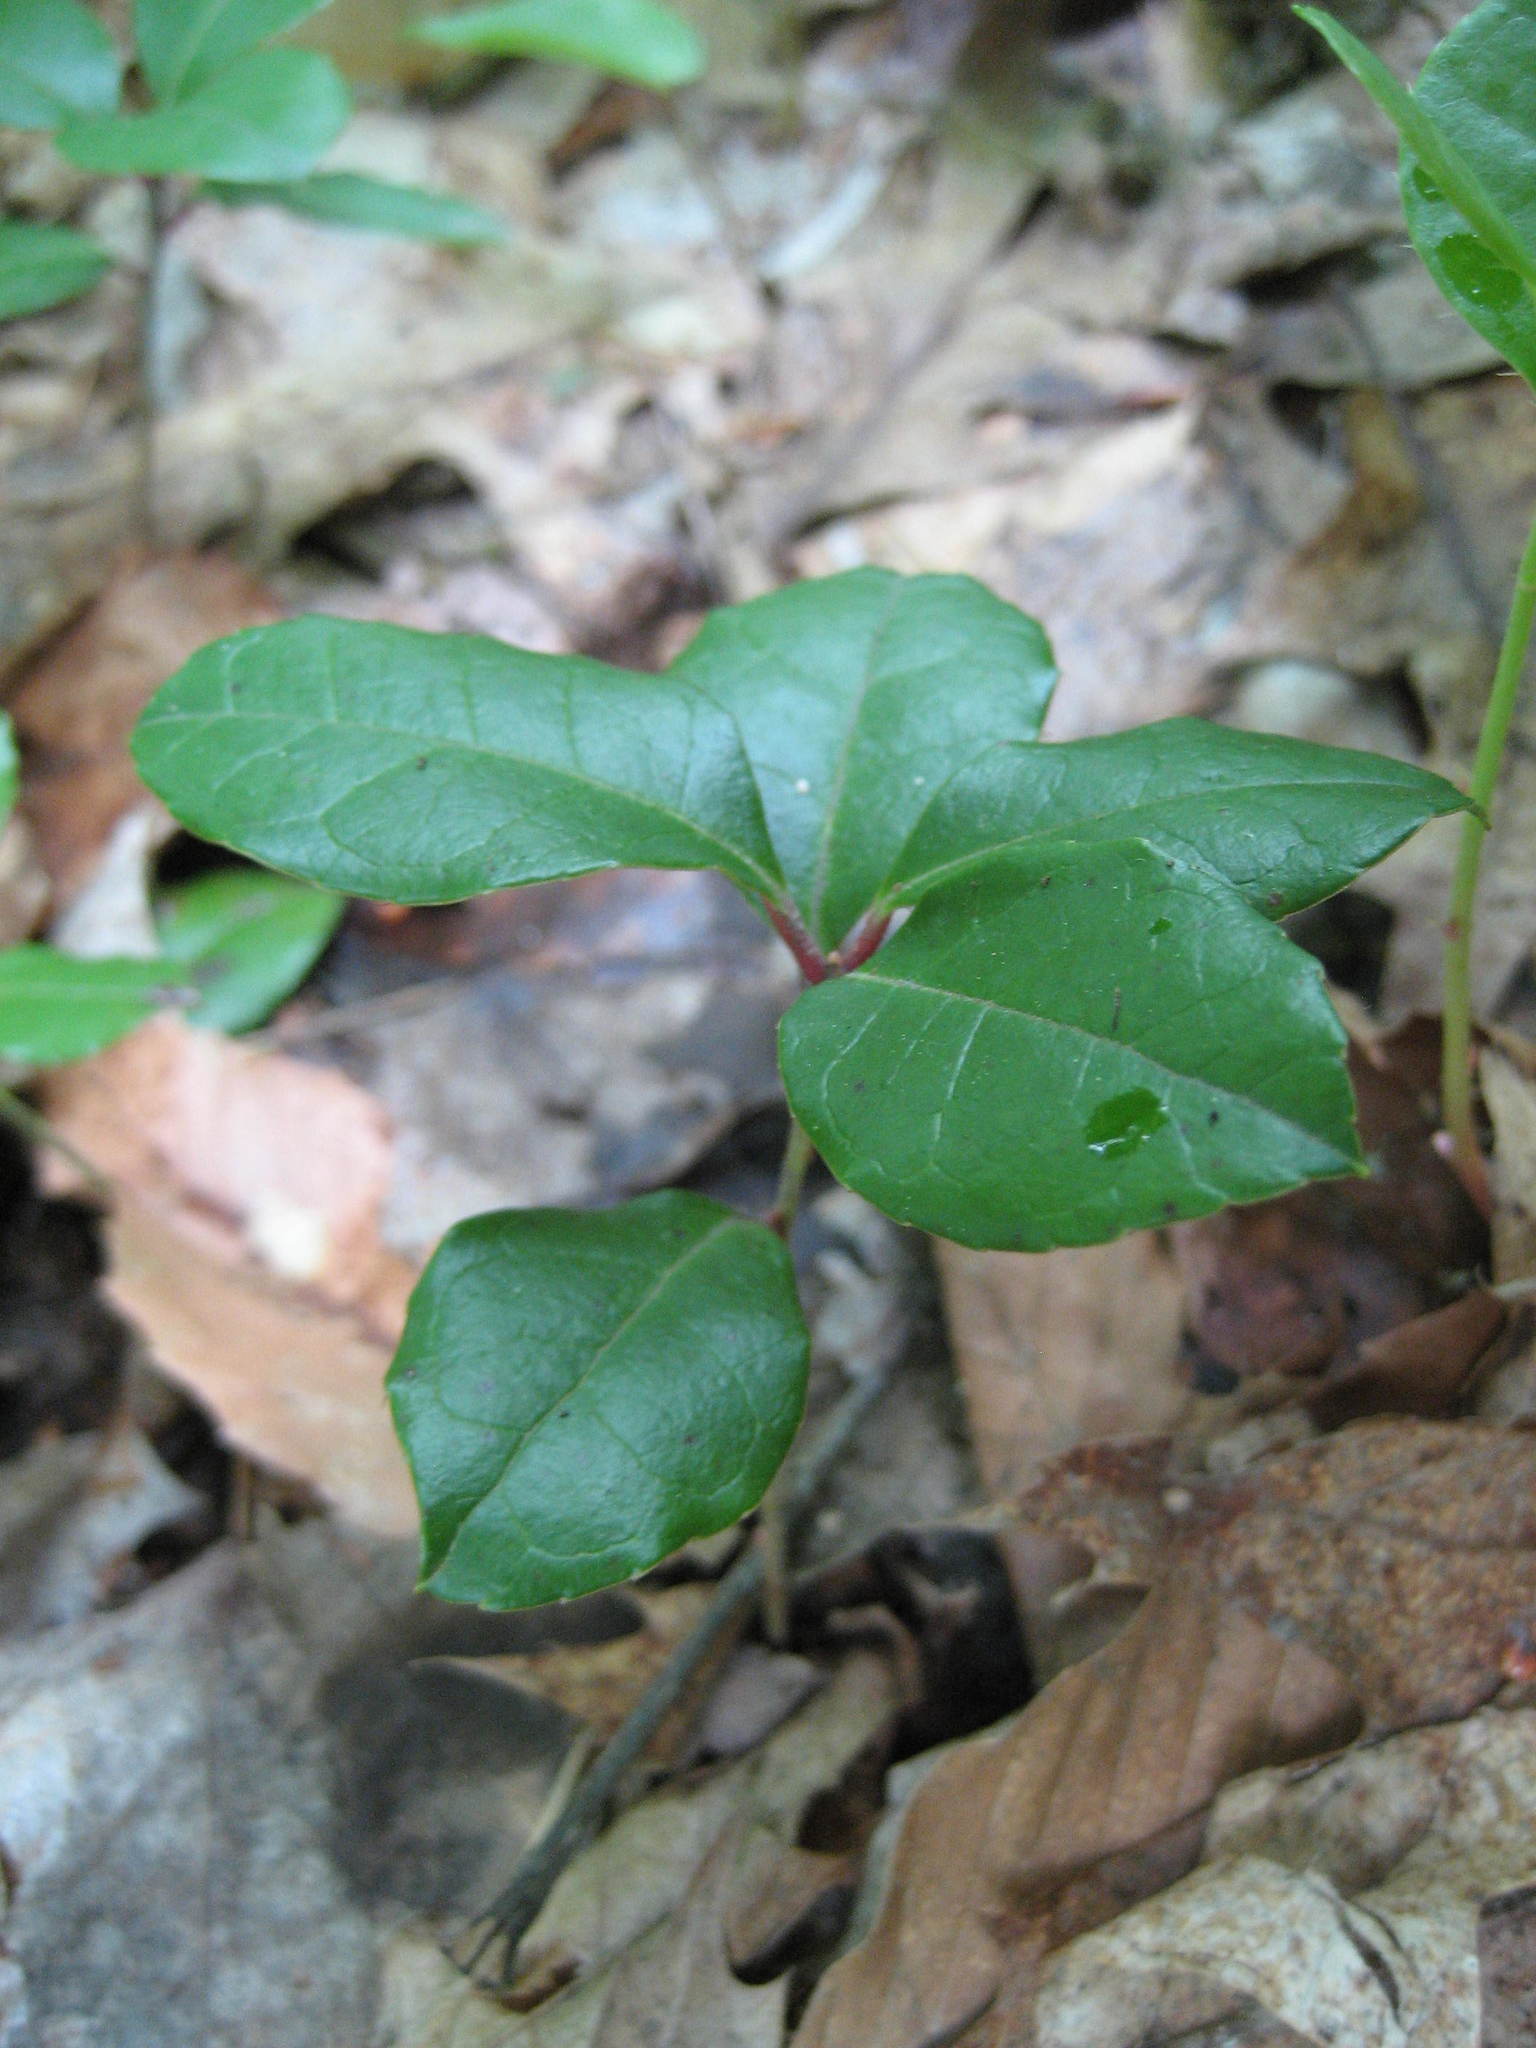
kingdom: Plantae
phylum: Tracheophyta
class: Magnoliopsida
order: Ericales
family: Ericaceae
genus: Gaultheria
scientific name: Gaultheria procumbens
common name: Checkerberry
